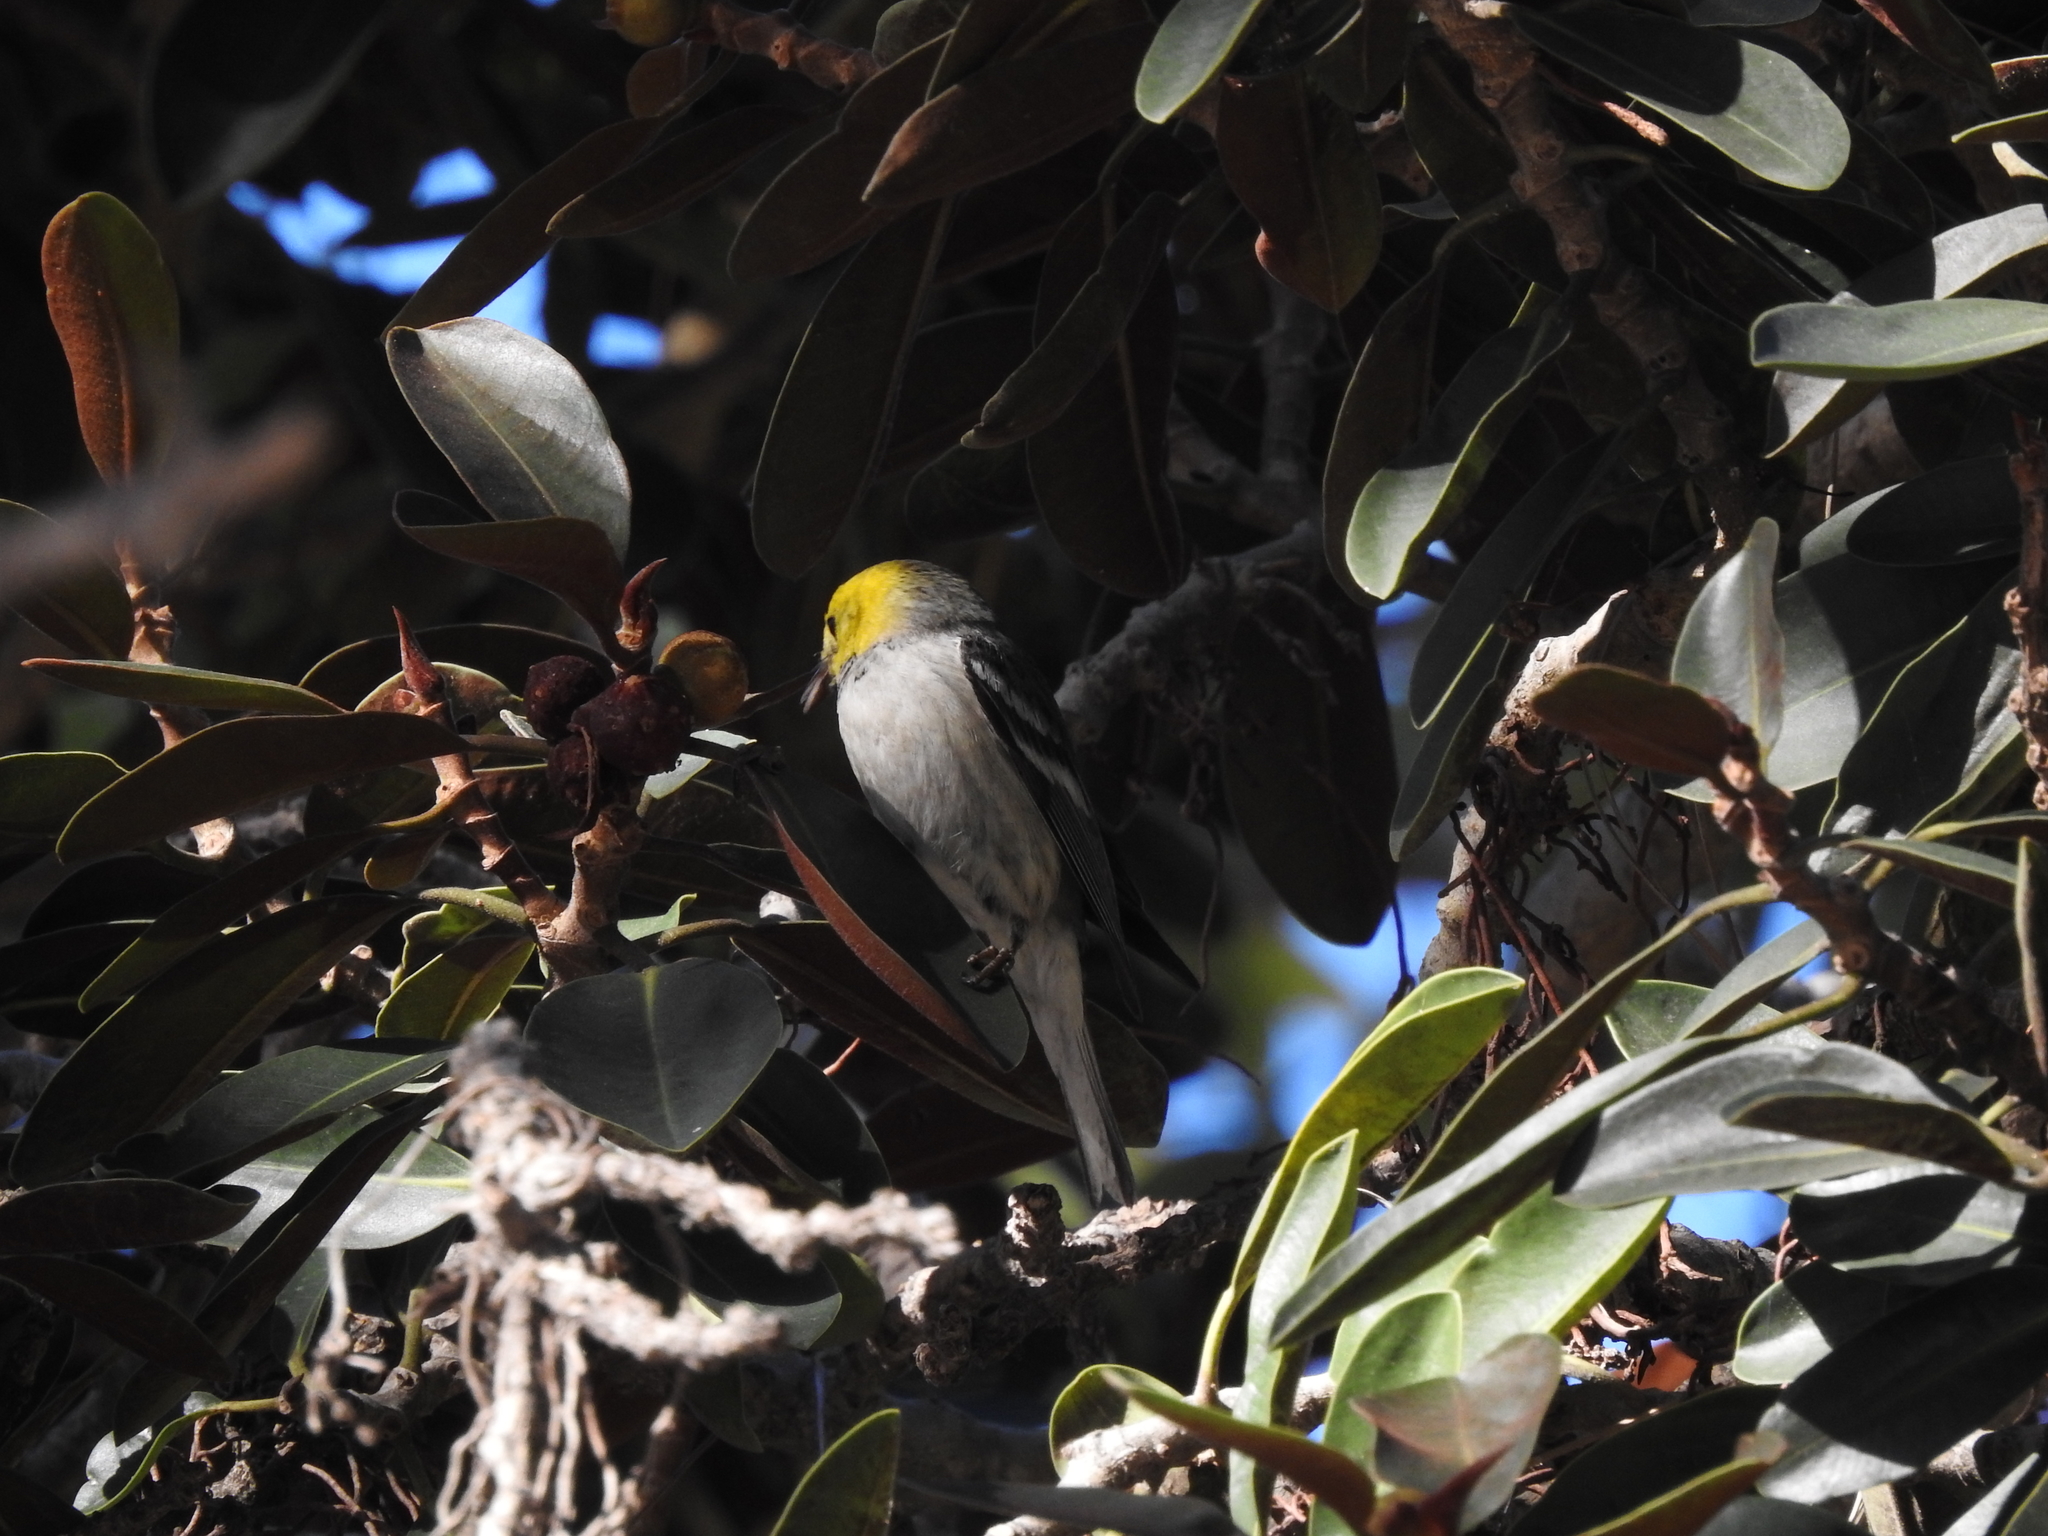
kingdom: Animalia
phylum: Chordata
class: Aves
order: Passeriformes
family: Parulidae
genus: Setophaga
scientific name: Setophaga occidentalis
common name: Hermit warbler
